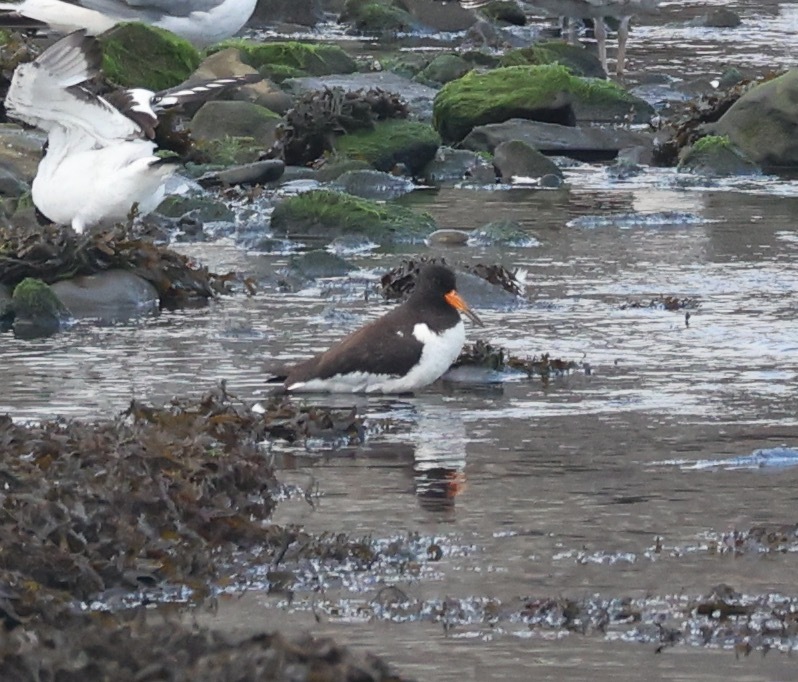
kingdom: Animalia
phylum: Chordata
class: Aves
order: Charadriiformes
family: Haematopodidae
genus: Haematopus
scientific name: Haematopus ostralegus
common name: Eurasian oystercatcher
